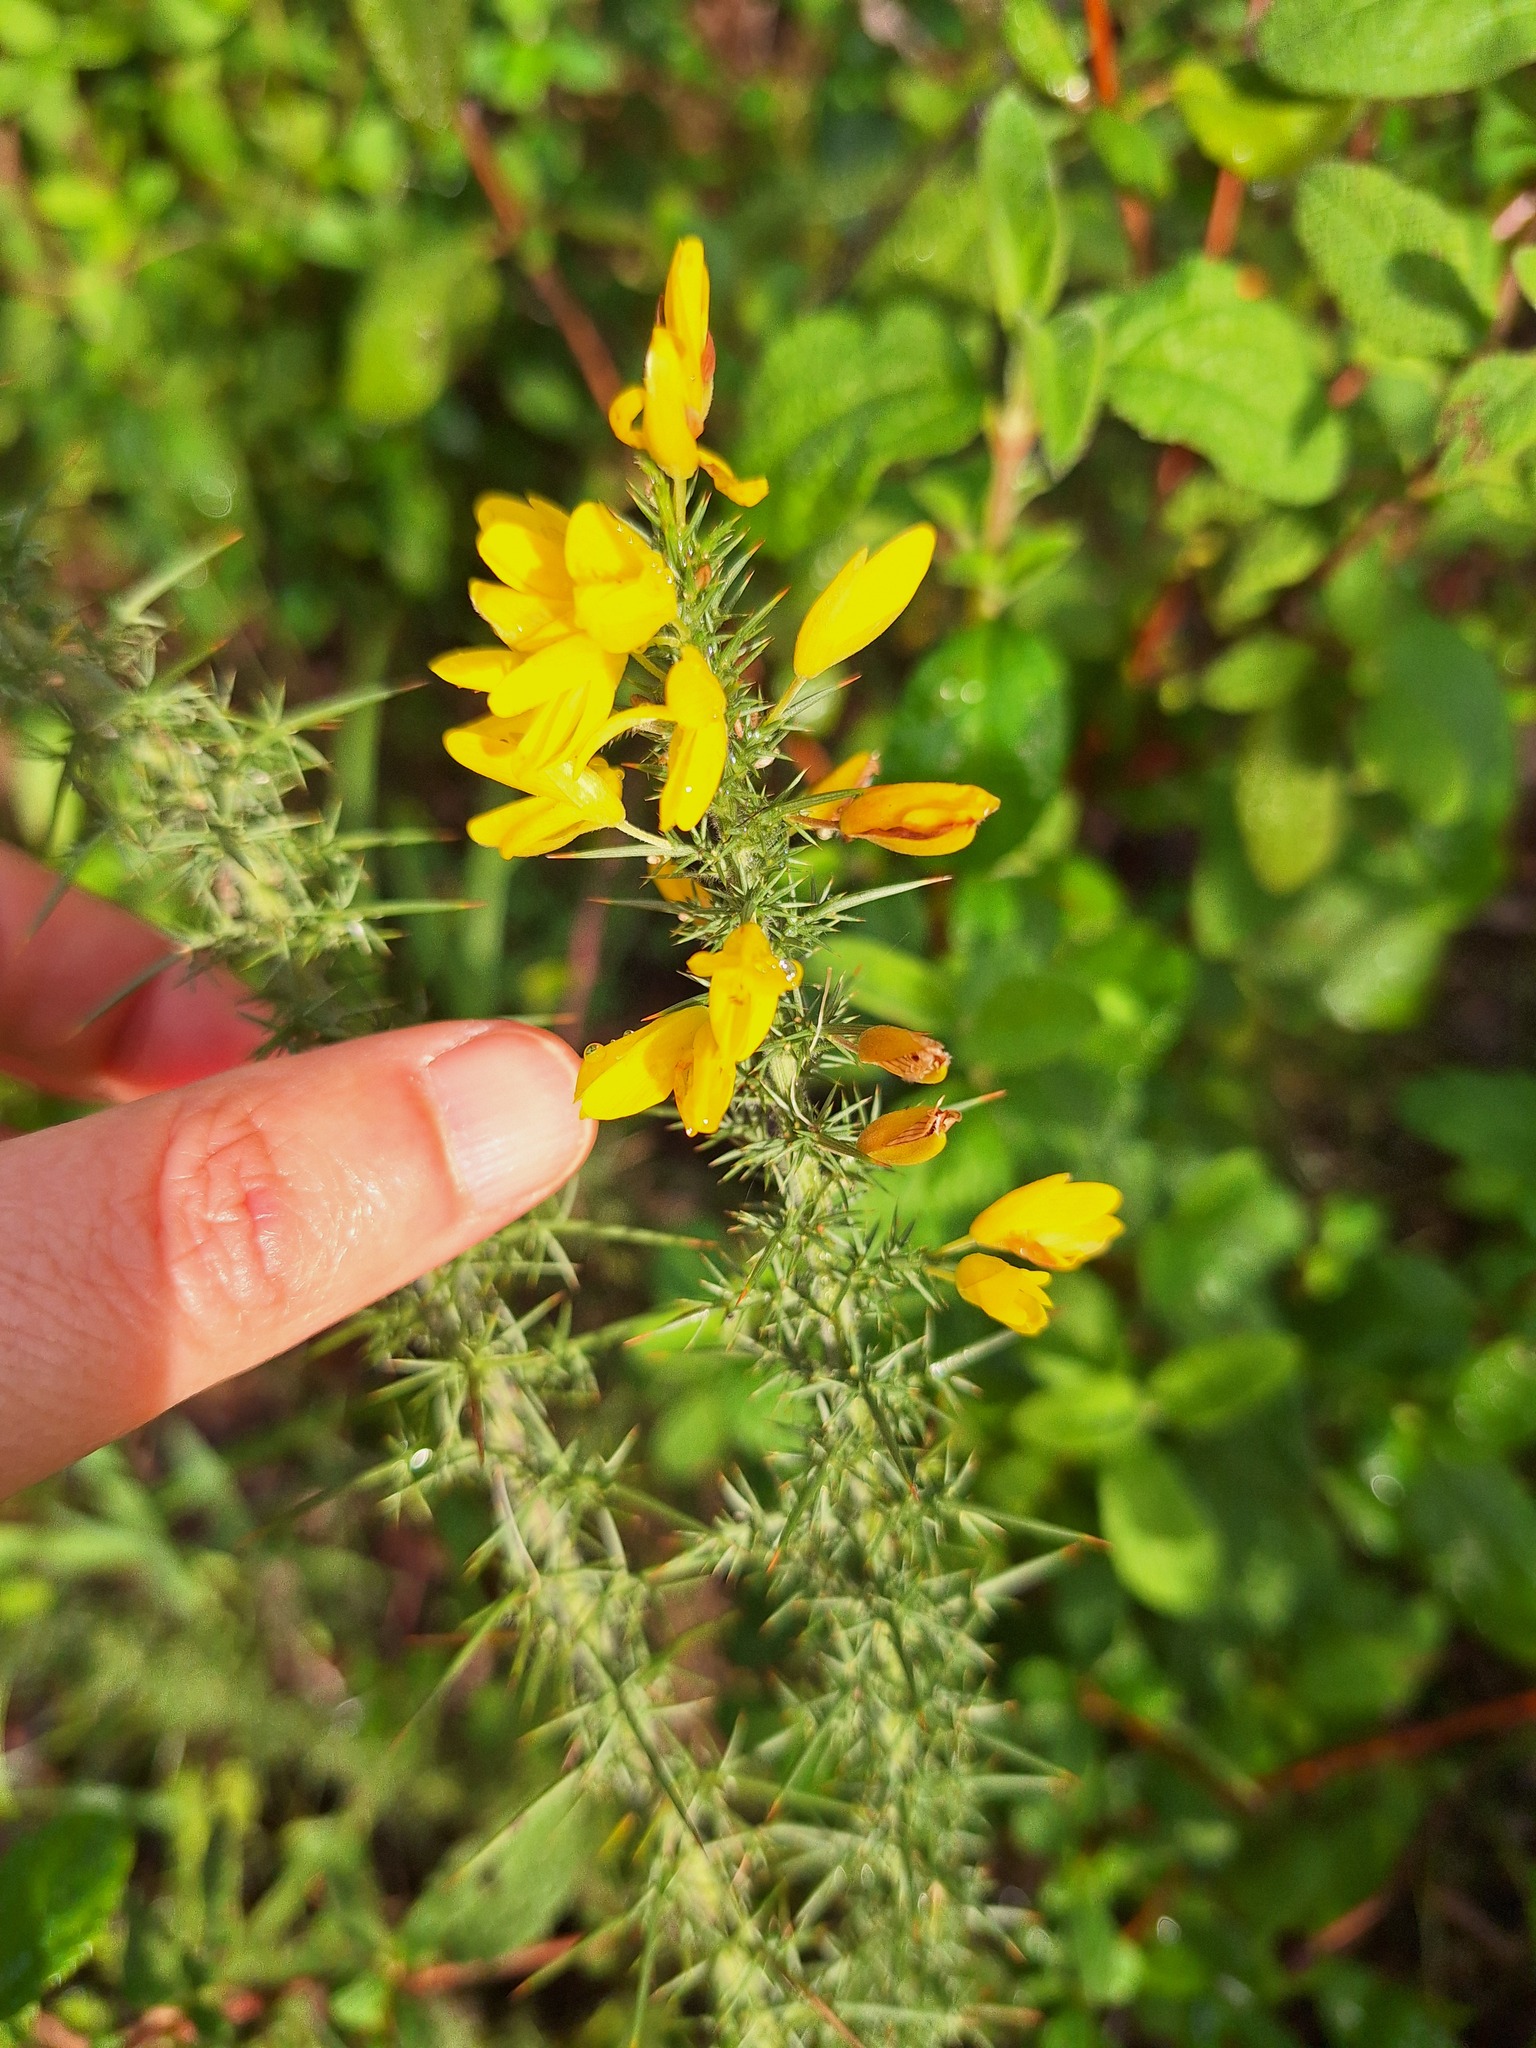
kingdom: Plantae
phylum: Tracheophyta
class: Magnoliopsida
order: Fabales
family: Fabaceae
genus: Ulex
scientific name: Ulex minor
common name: Dwarf gorse
